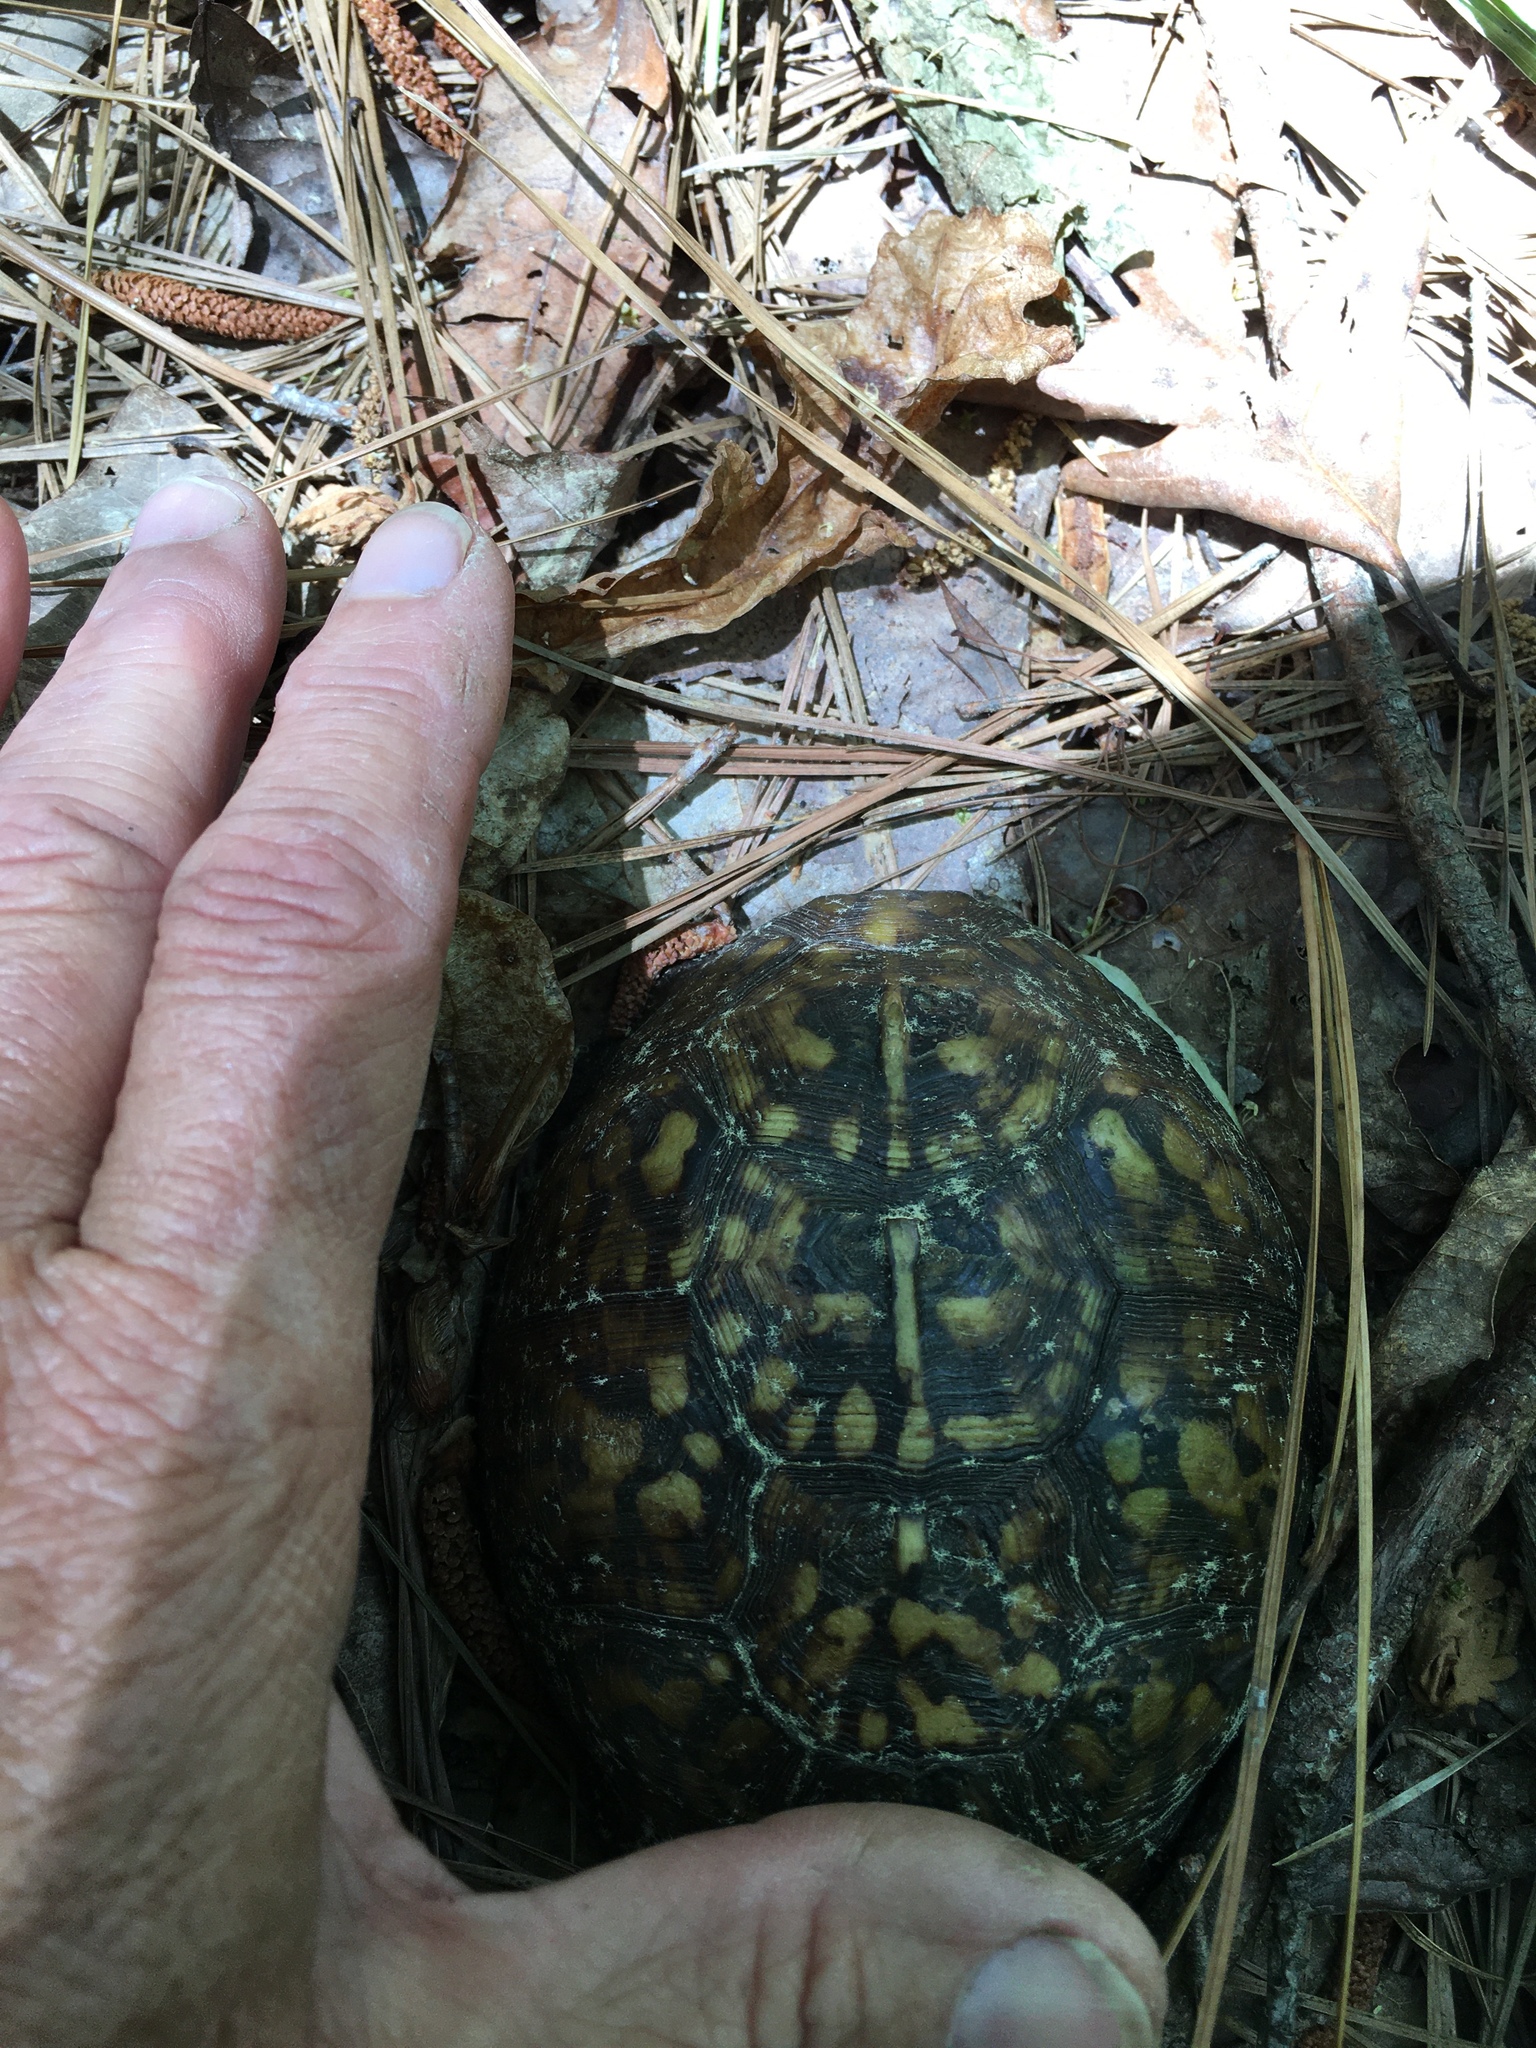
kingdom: Animalia
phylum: Chordata
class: Testudines
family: Emydidae
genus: Terrapene
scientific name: Terrapene carolina
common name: Common box turtle
